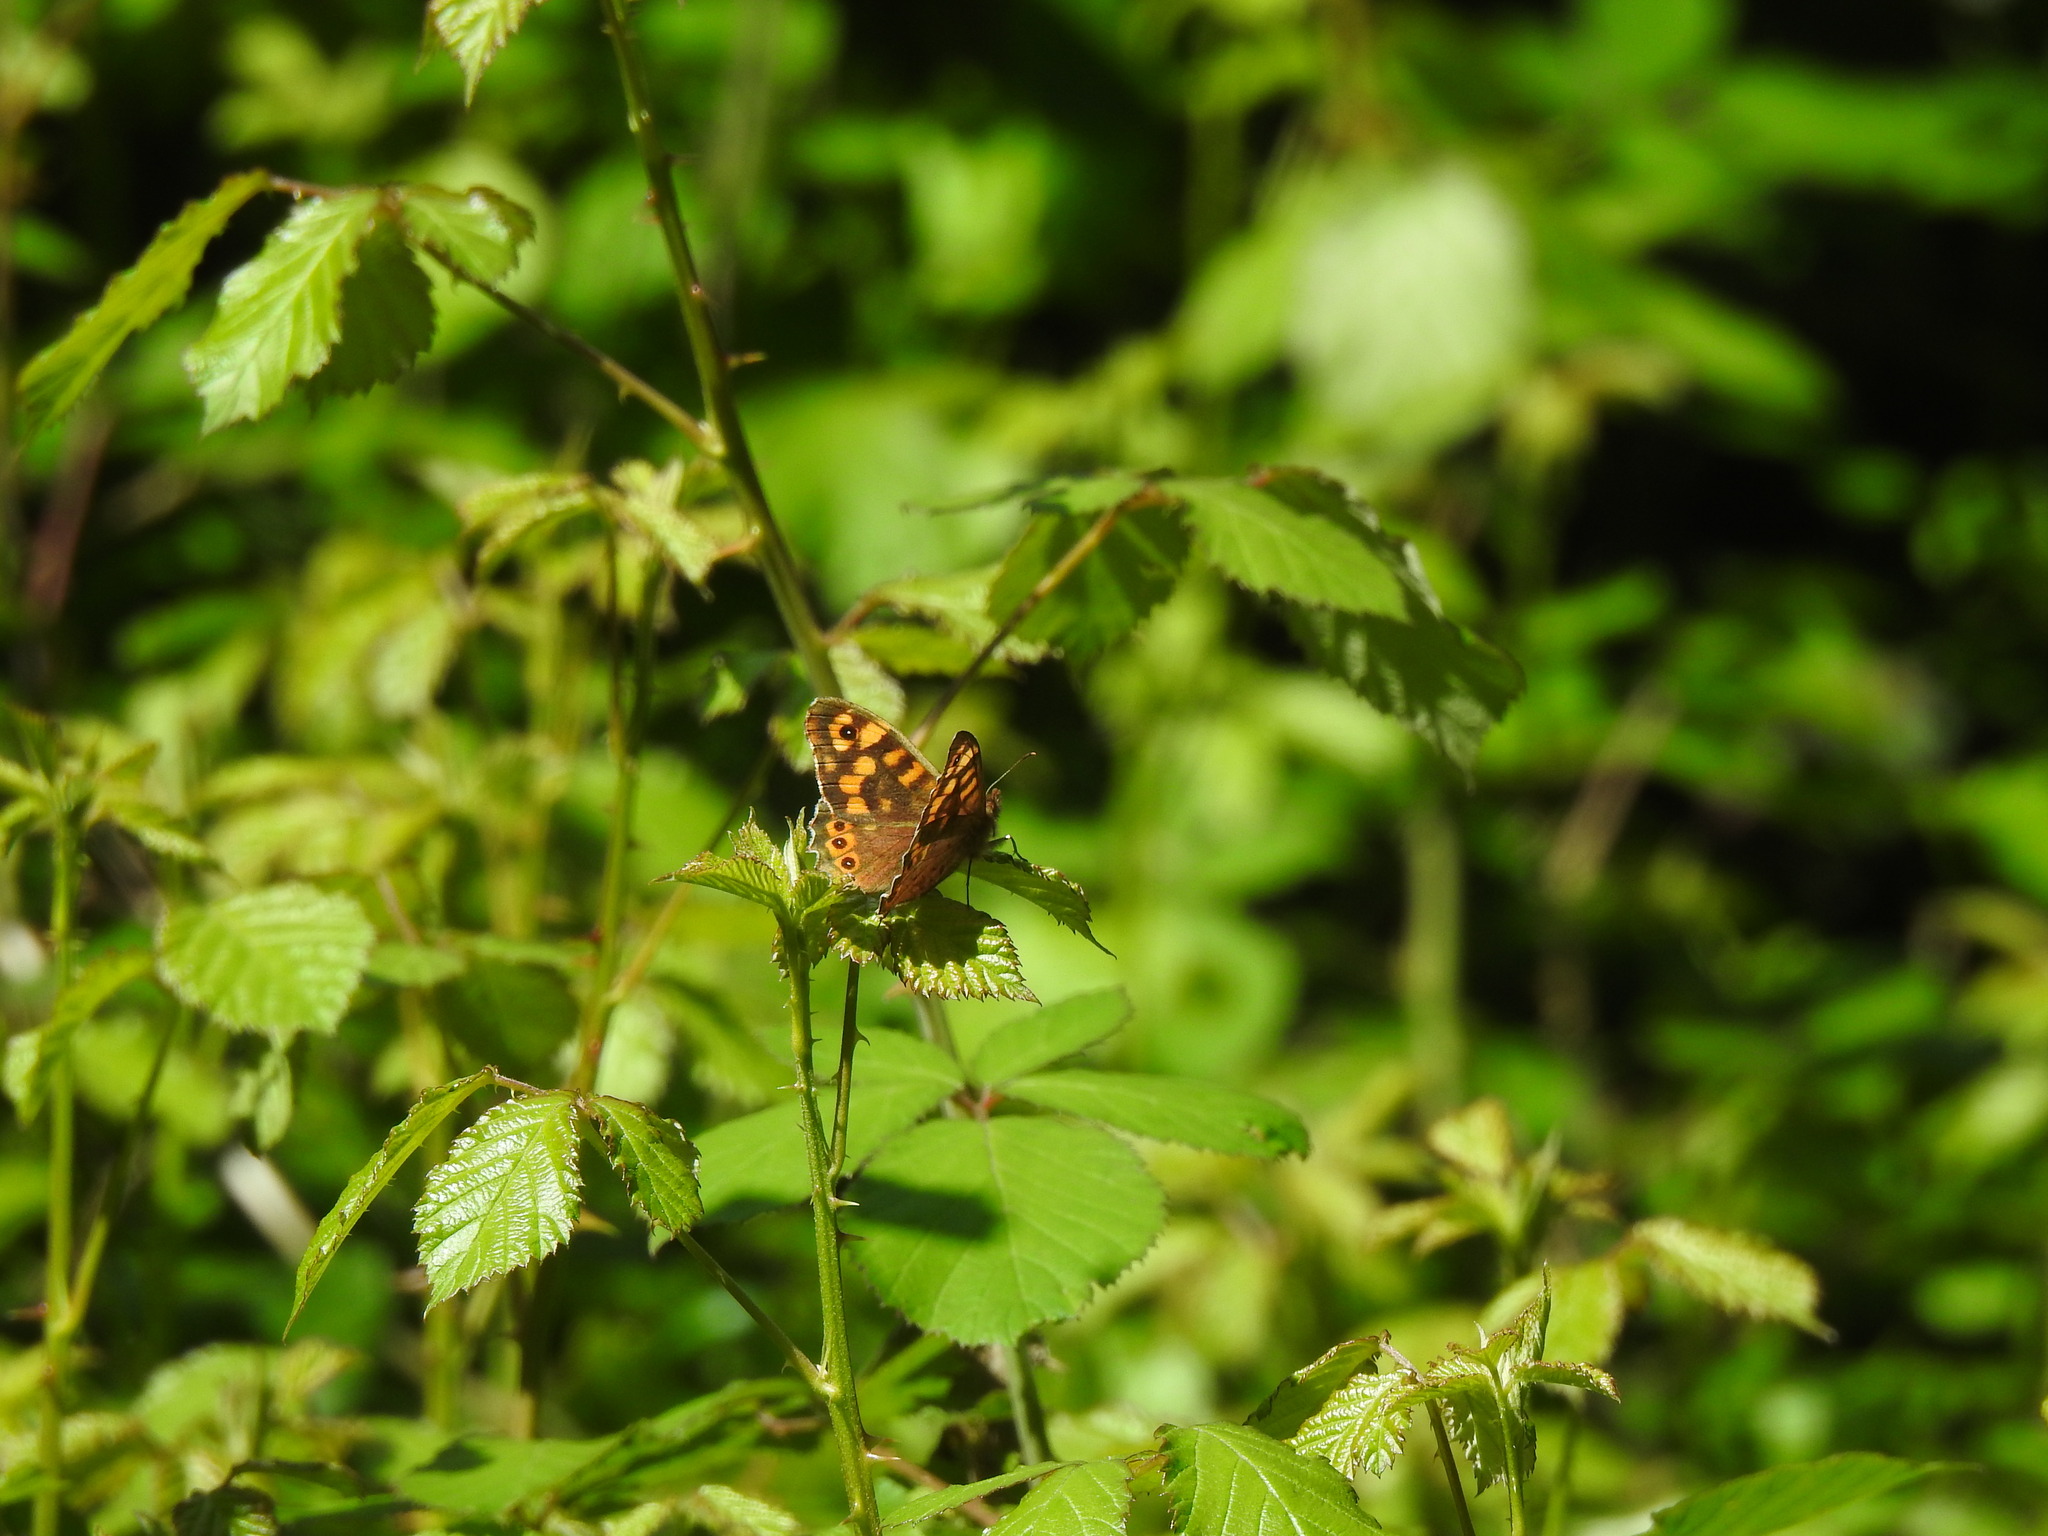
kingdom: Animalia
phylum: Arthropoda
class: Insecta
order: Lepidoptera
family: Nymphalidae
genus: Pararge
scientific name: Pararge aegeria
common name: Speckled wood
